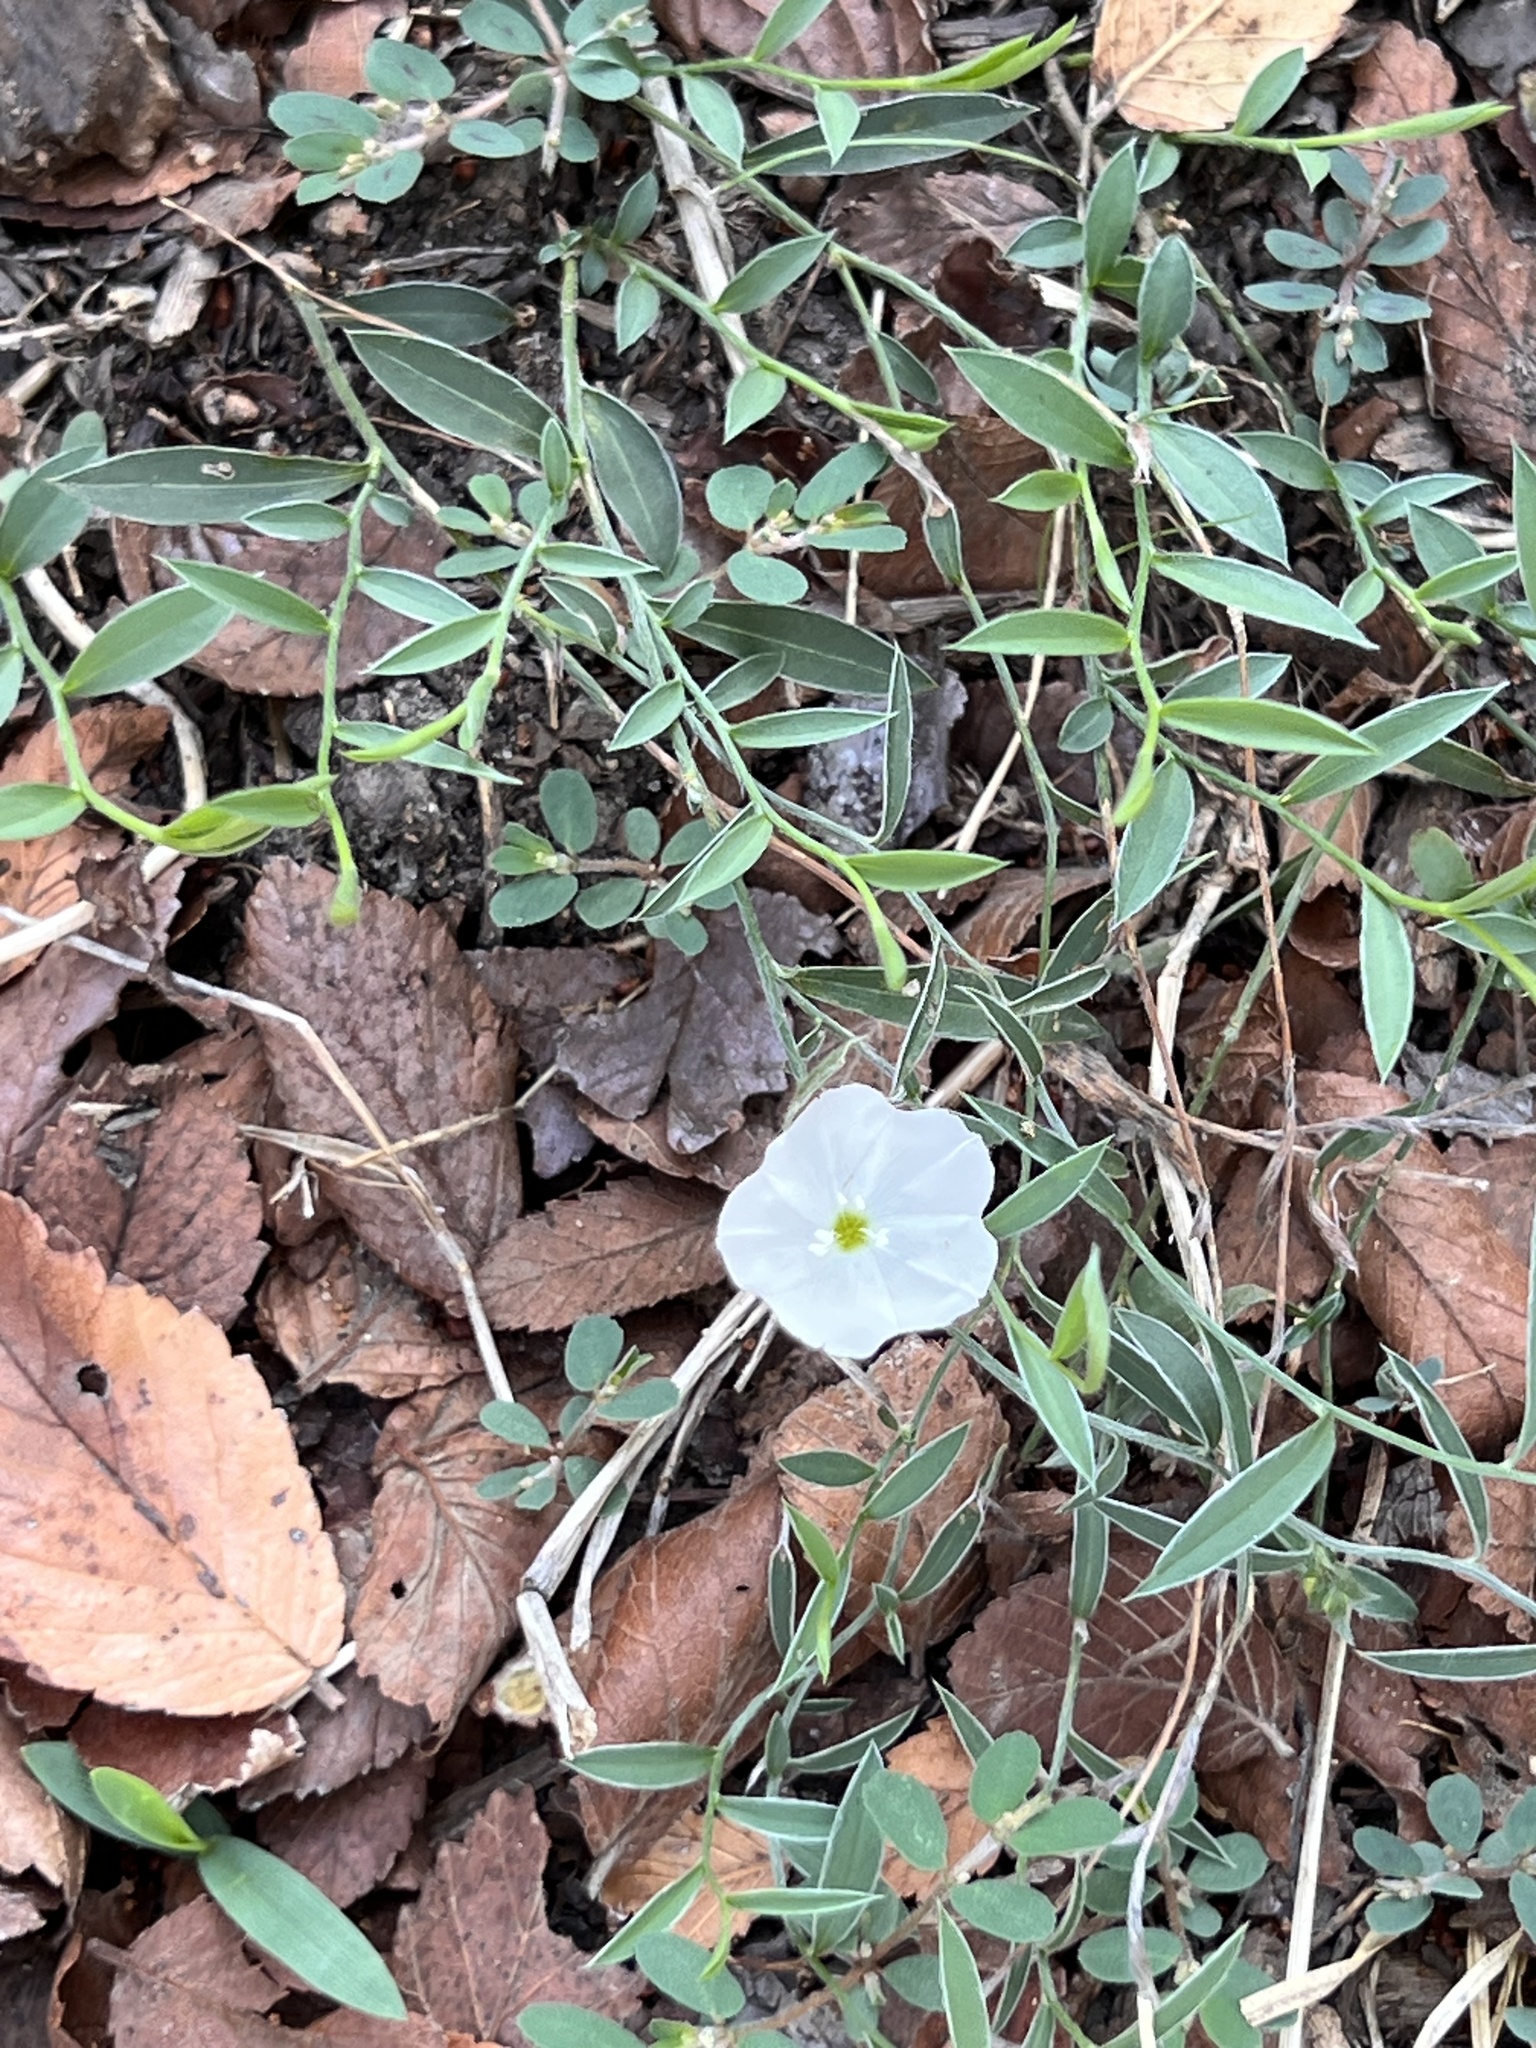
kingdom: Plantae
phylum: Tracheophyta
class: Magnoliopsida
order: Solanales
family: Convolvulaceae
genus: Evolvulus
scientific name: Evolvulus sericeus
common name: Blue dots
